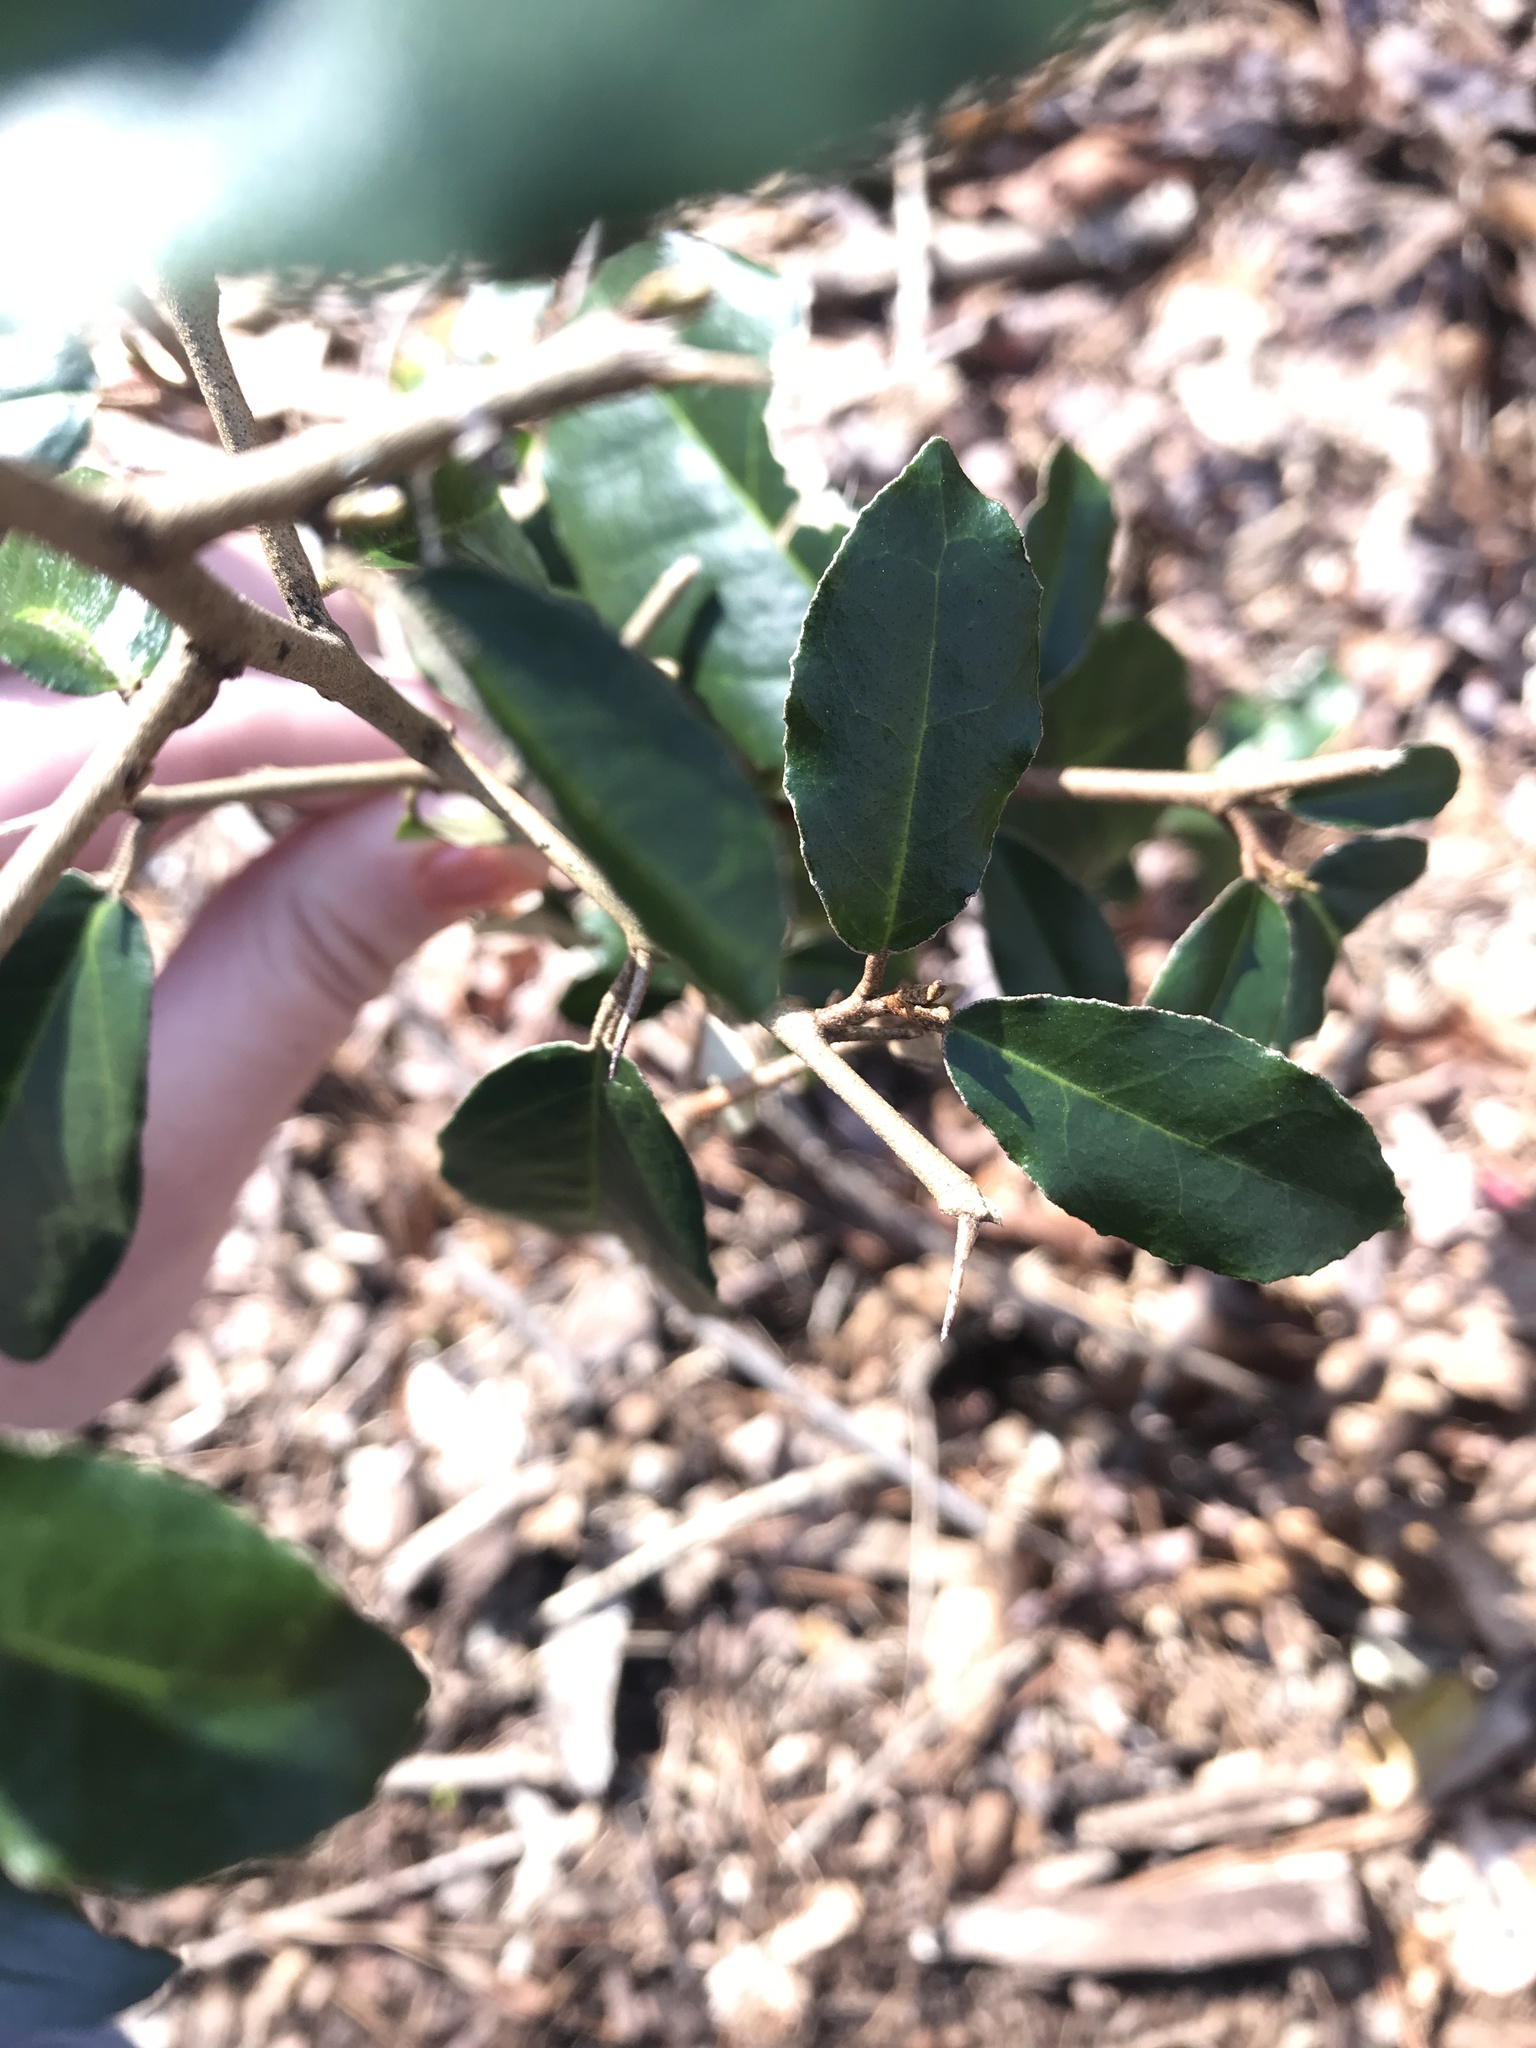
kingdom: Plantae
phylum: Tracheophyta
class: Magnoliopsida
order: Rosales
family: Elaeagnaceae
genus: Elaeagnus
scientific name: Elaeagnus pungens
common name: Spiny oleaster
